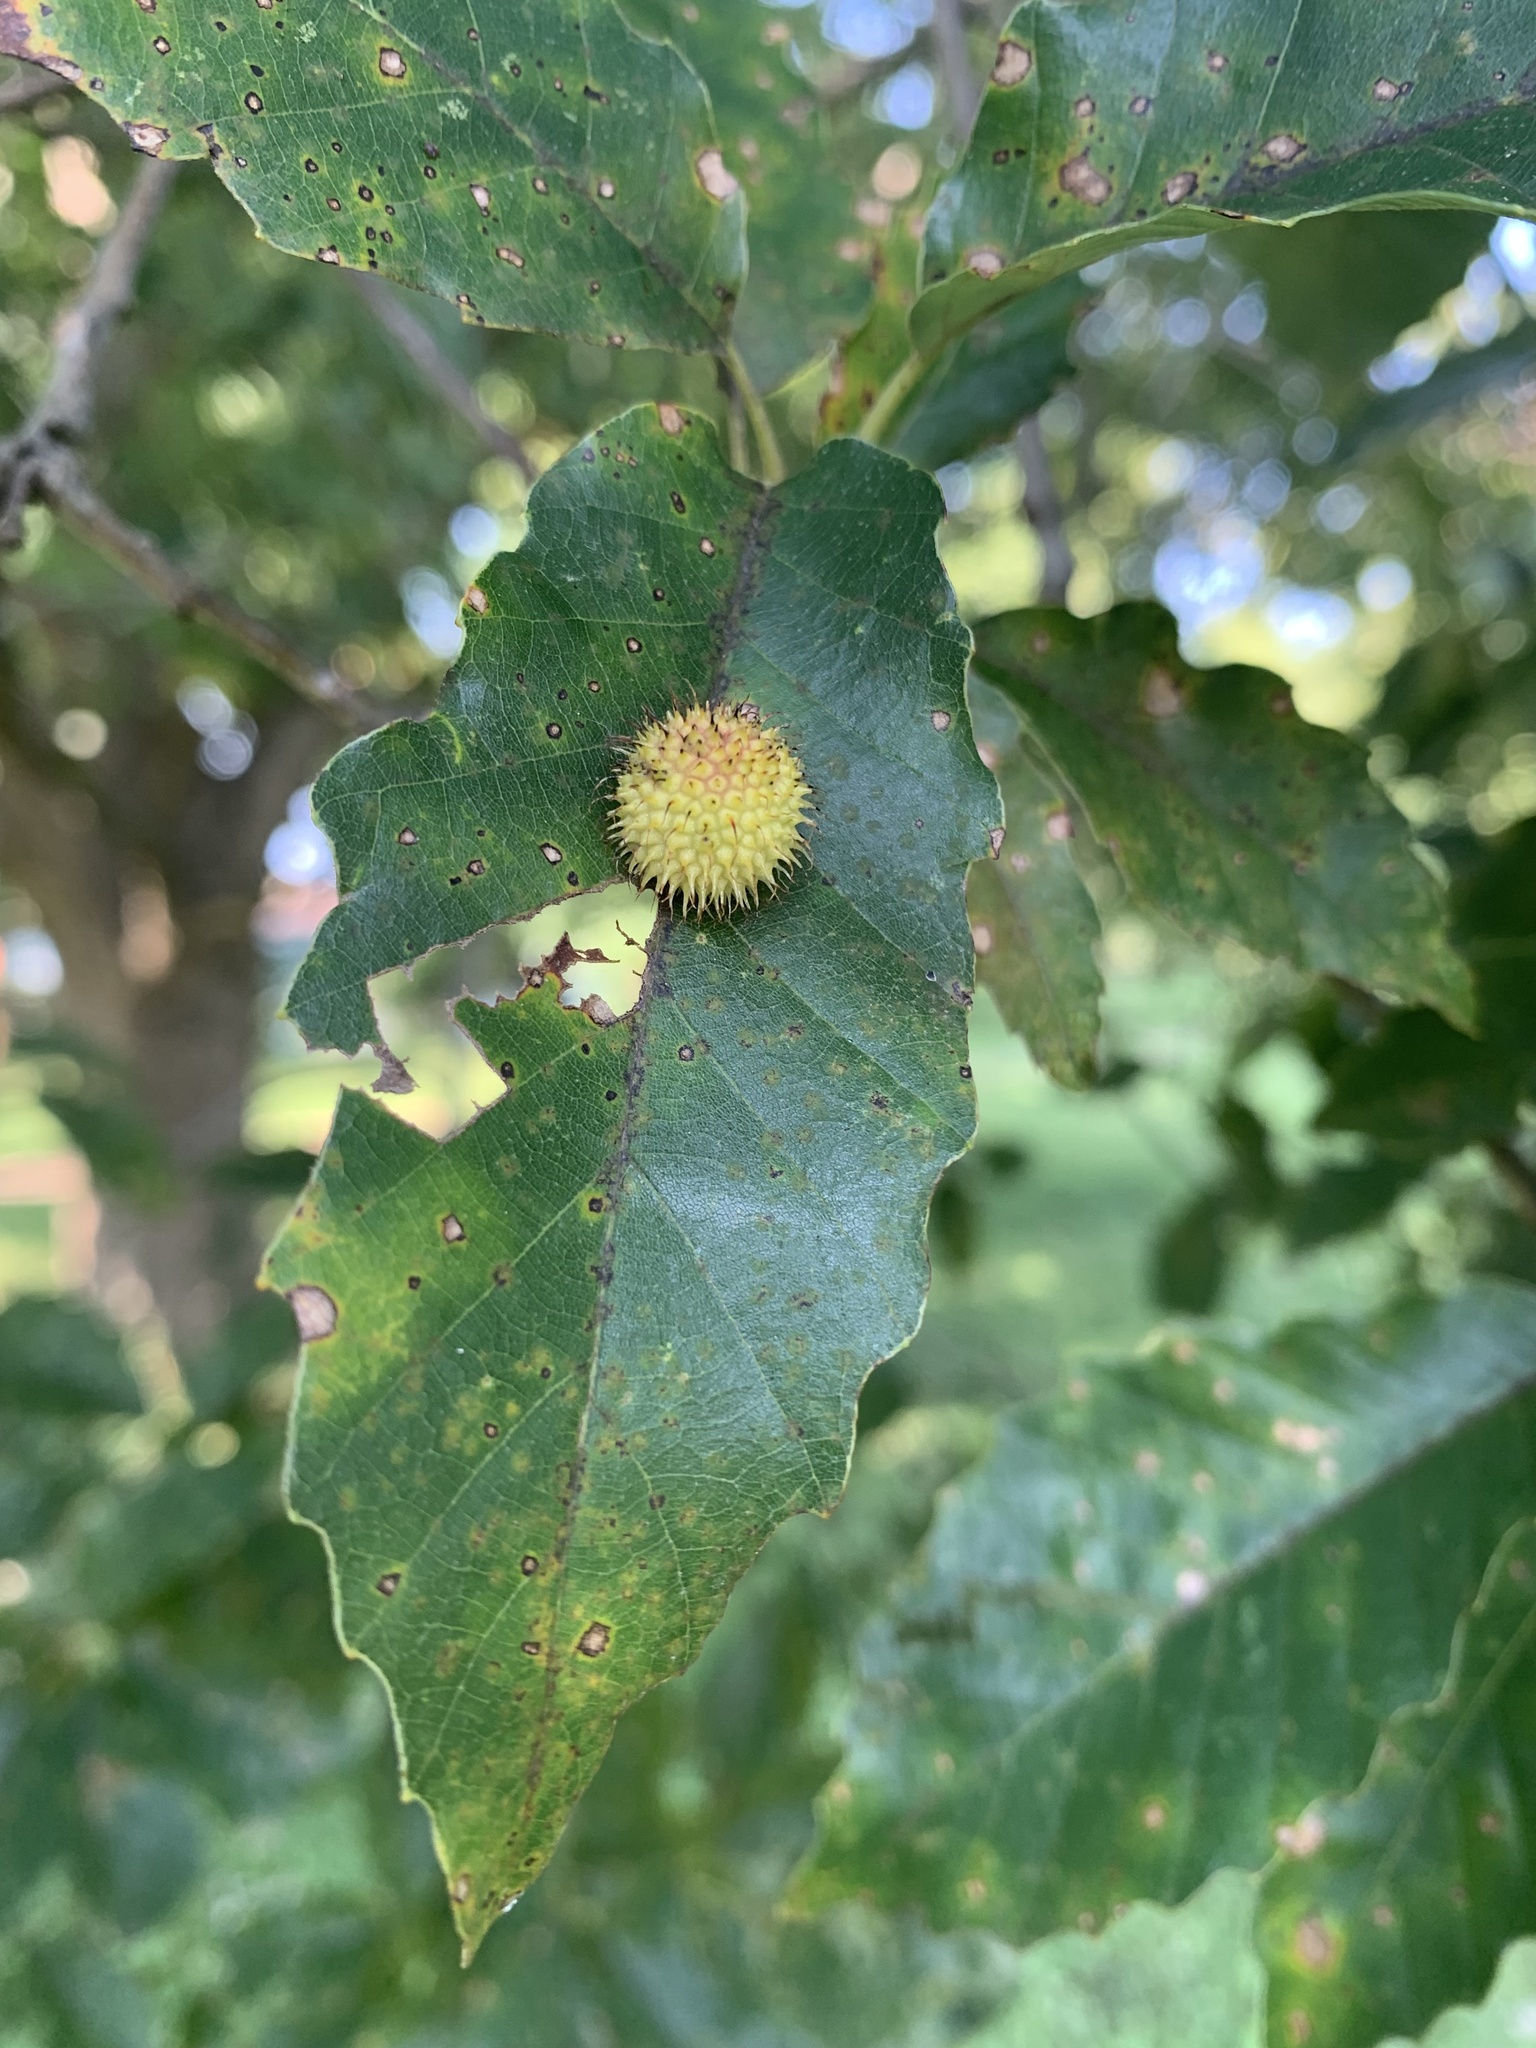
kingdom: Animalia
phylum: Arthropoda
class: Insecta
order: Hymenoptera
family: Cynipidae
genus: Acraspis
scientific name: Acraspis
